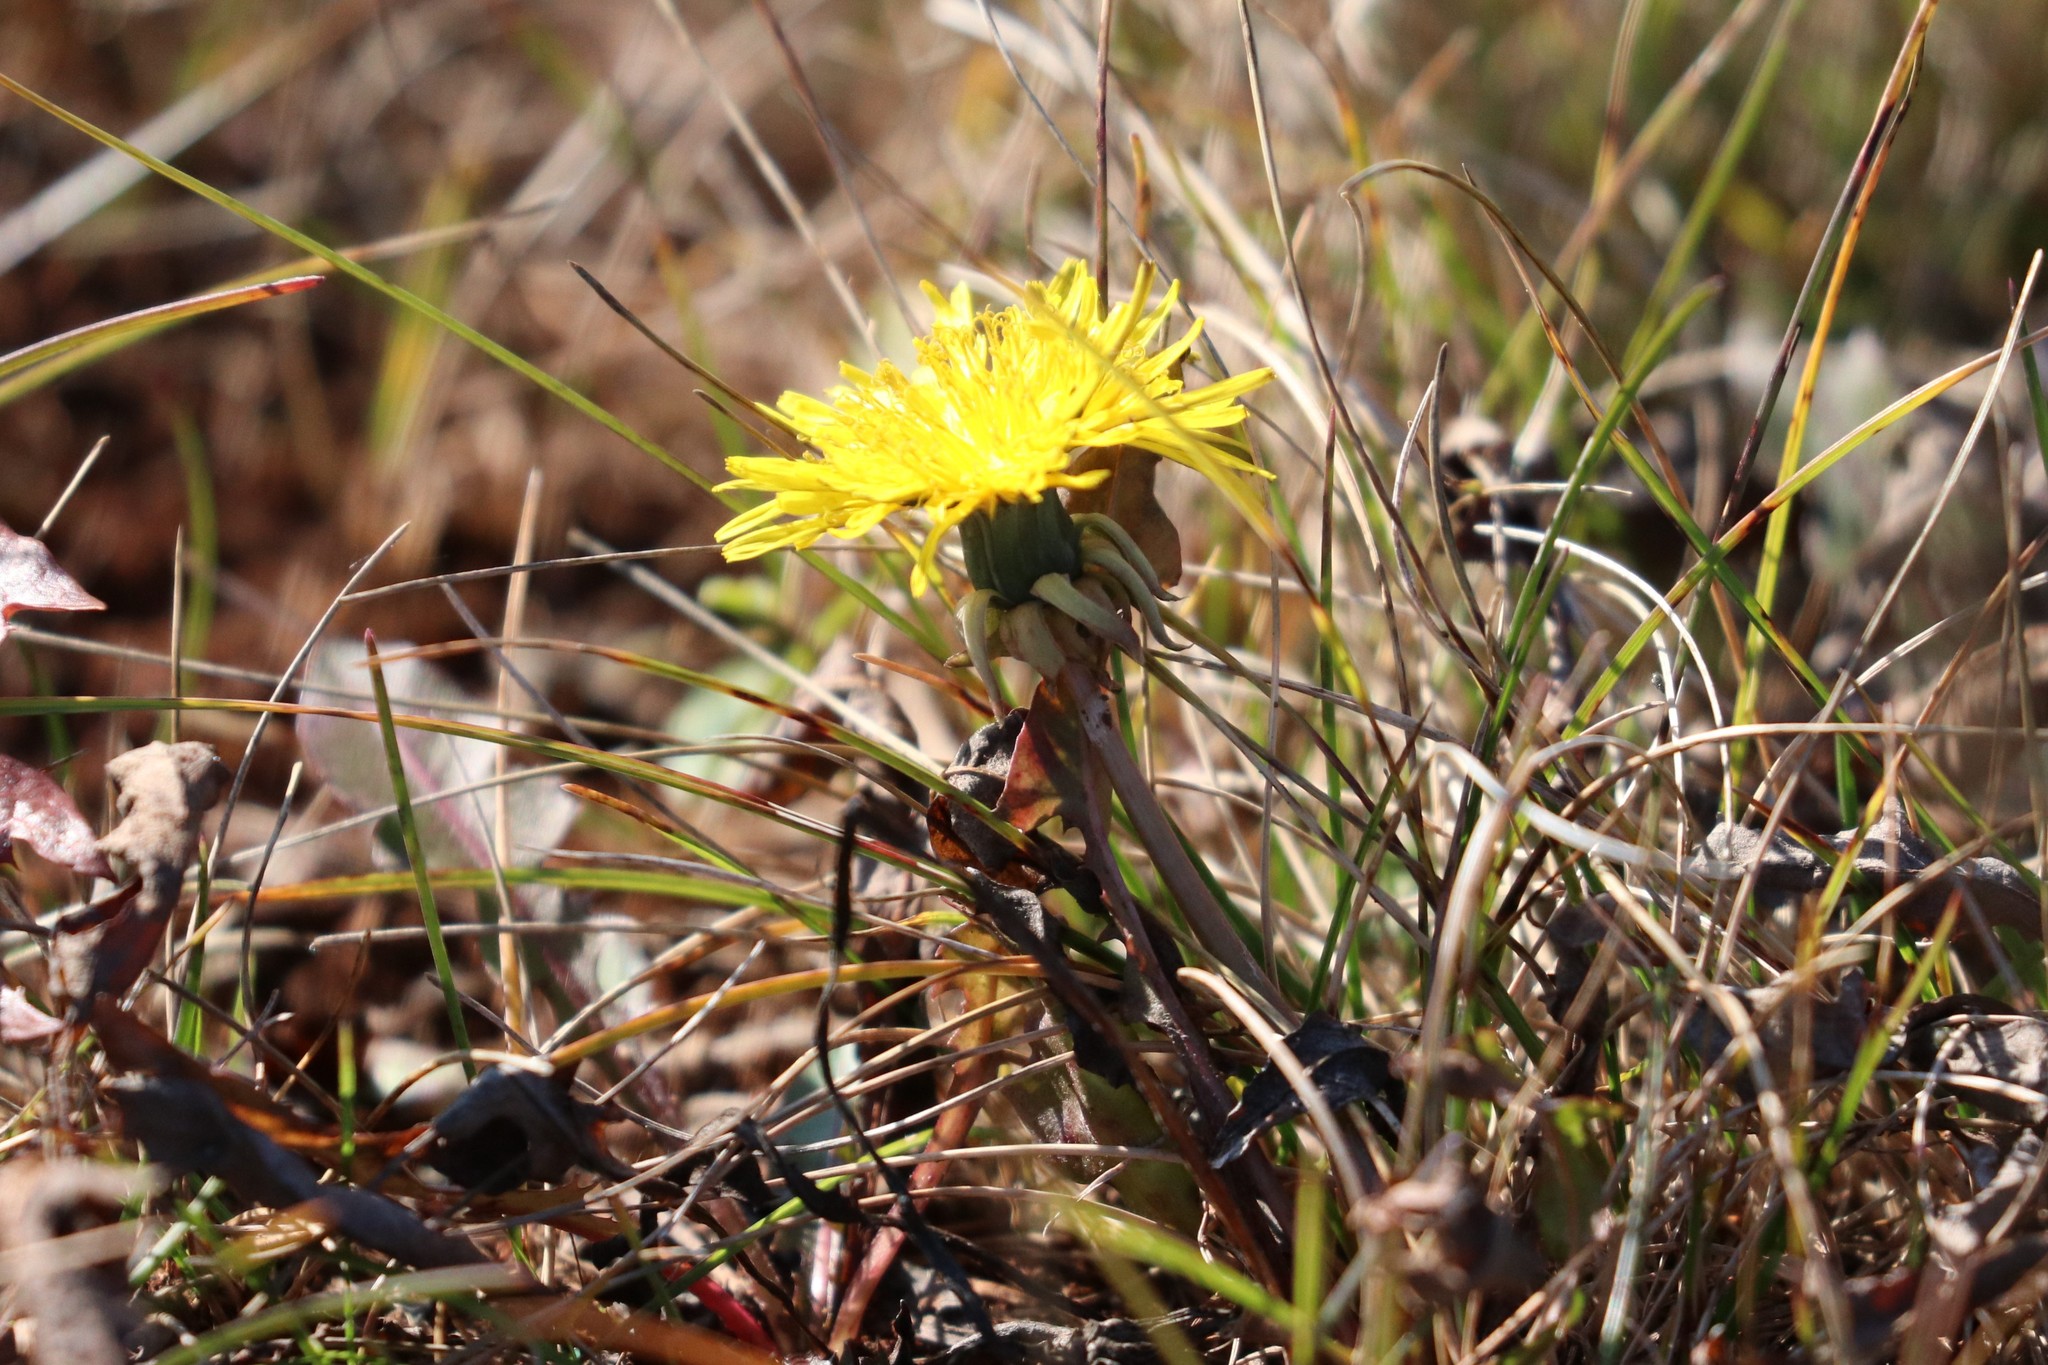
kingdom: Plantae
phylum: Tracheophyta
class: Magnoliopsida
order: Asterales
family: Asteraceae
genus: Taraxacum
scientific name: Taraxacum officinale
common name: Common dandelion
